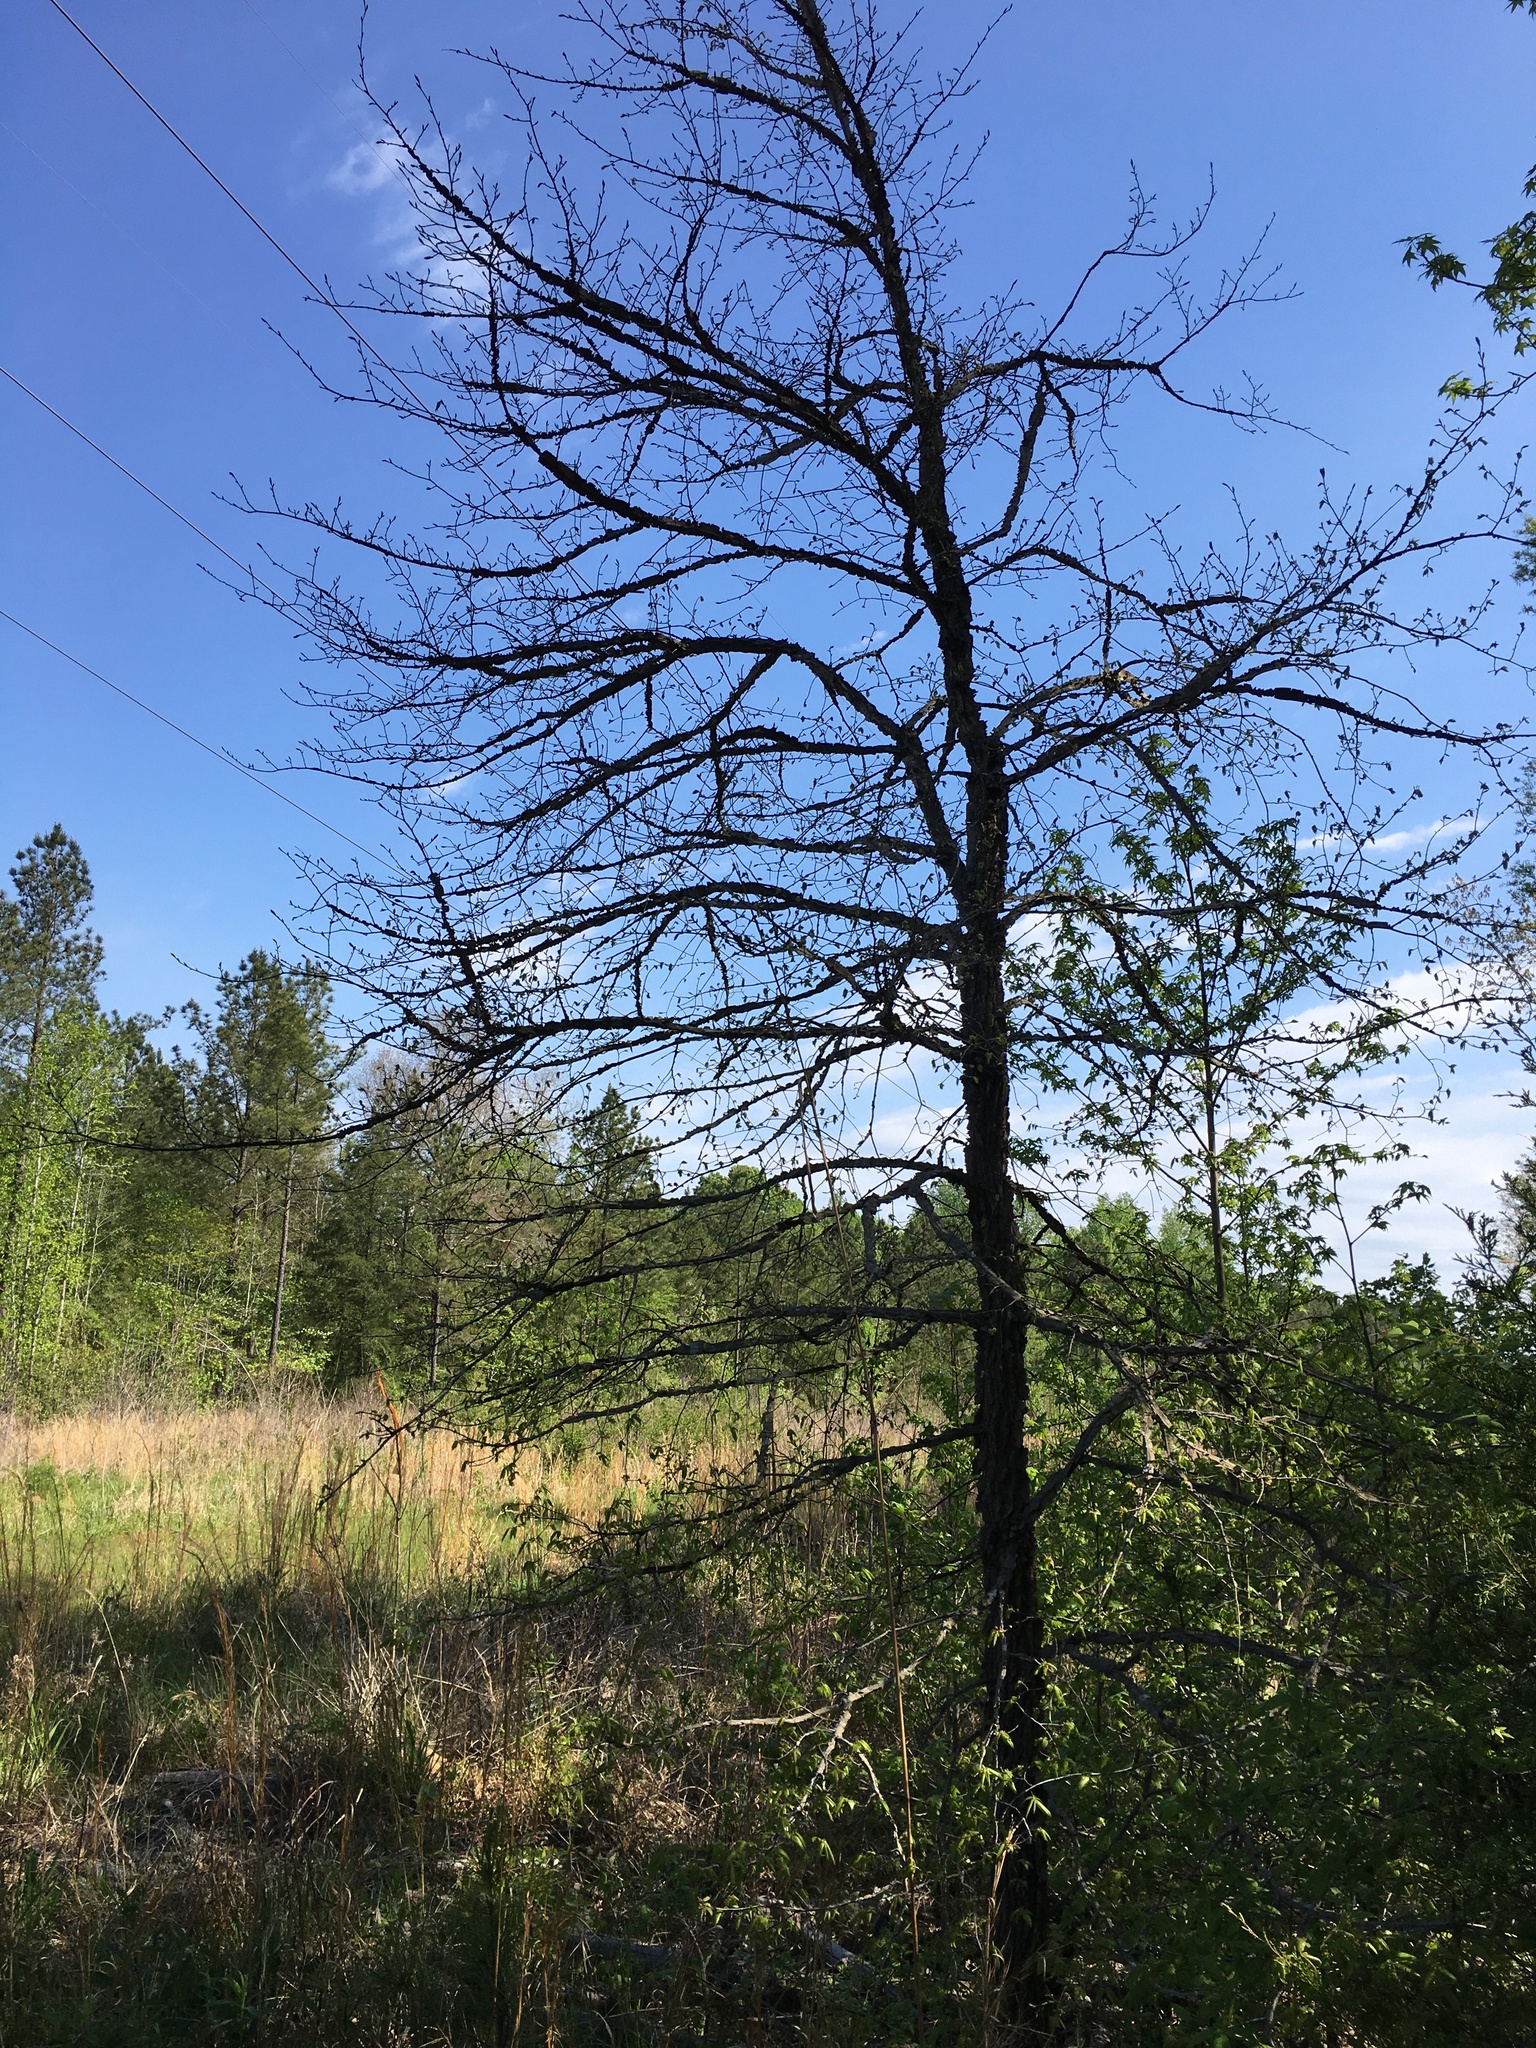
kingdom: Plantae
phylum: Tracheophyta
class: Magnoliopsida
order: Rosales
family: Ulmaceae
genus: Ulmus
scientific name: Ulmus alata
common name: Winged elm
